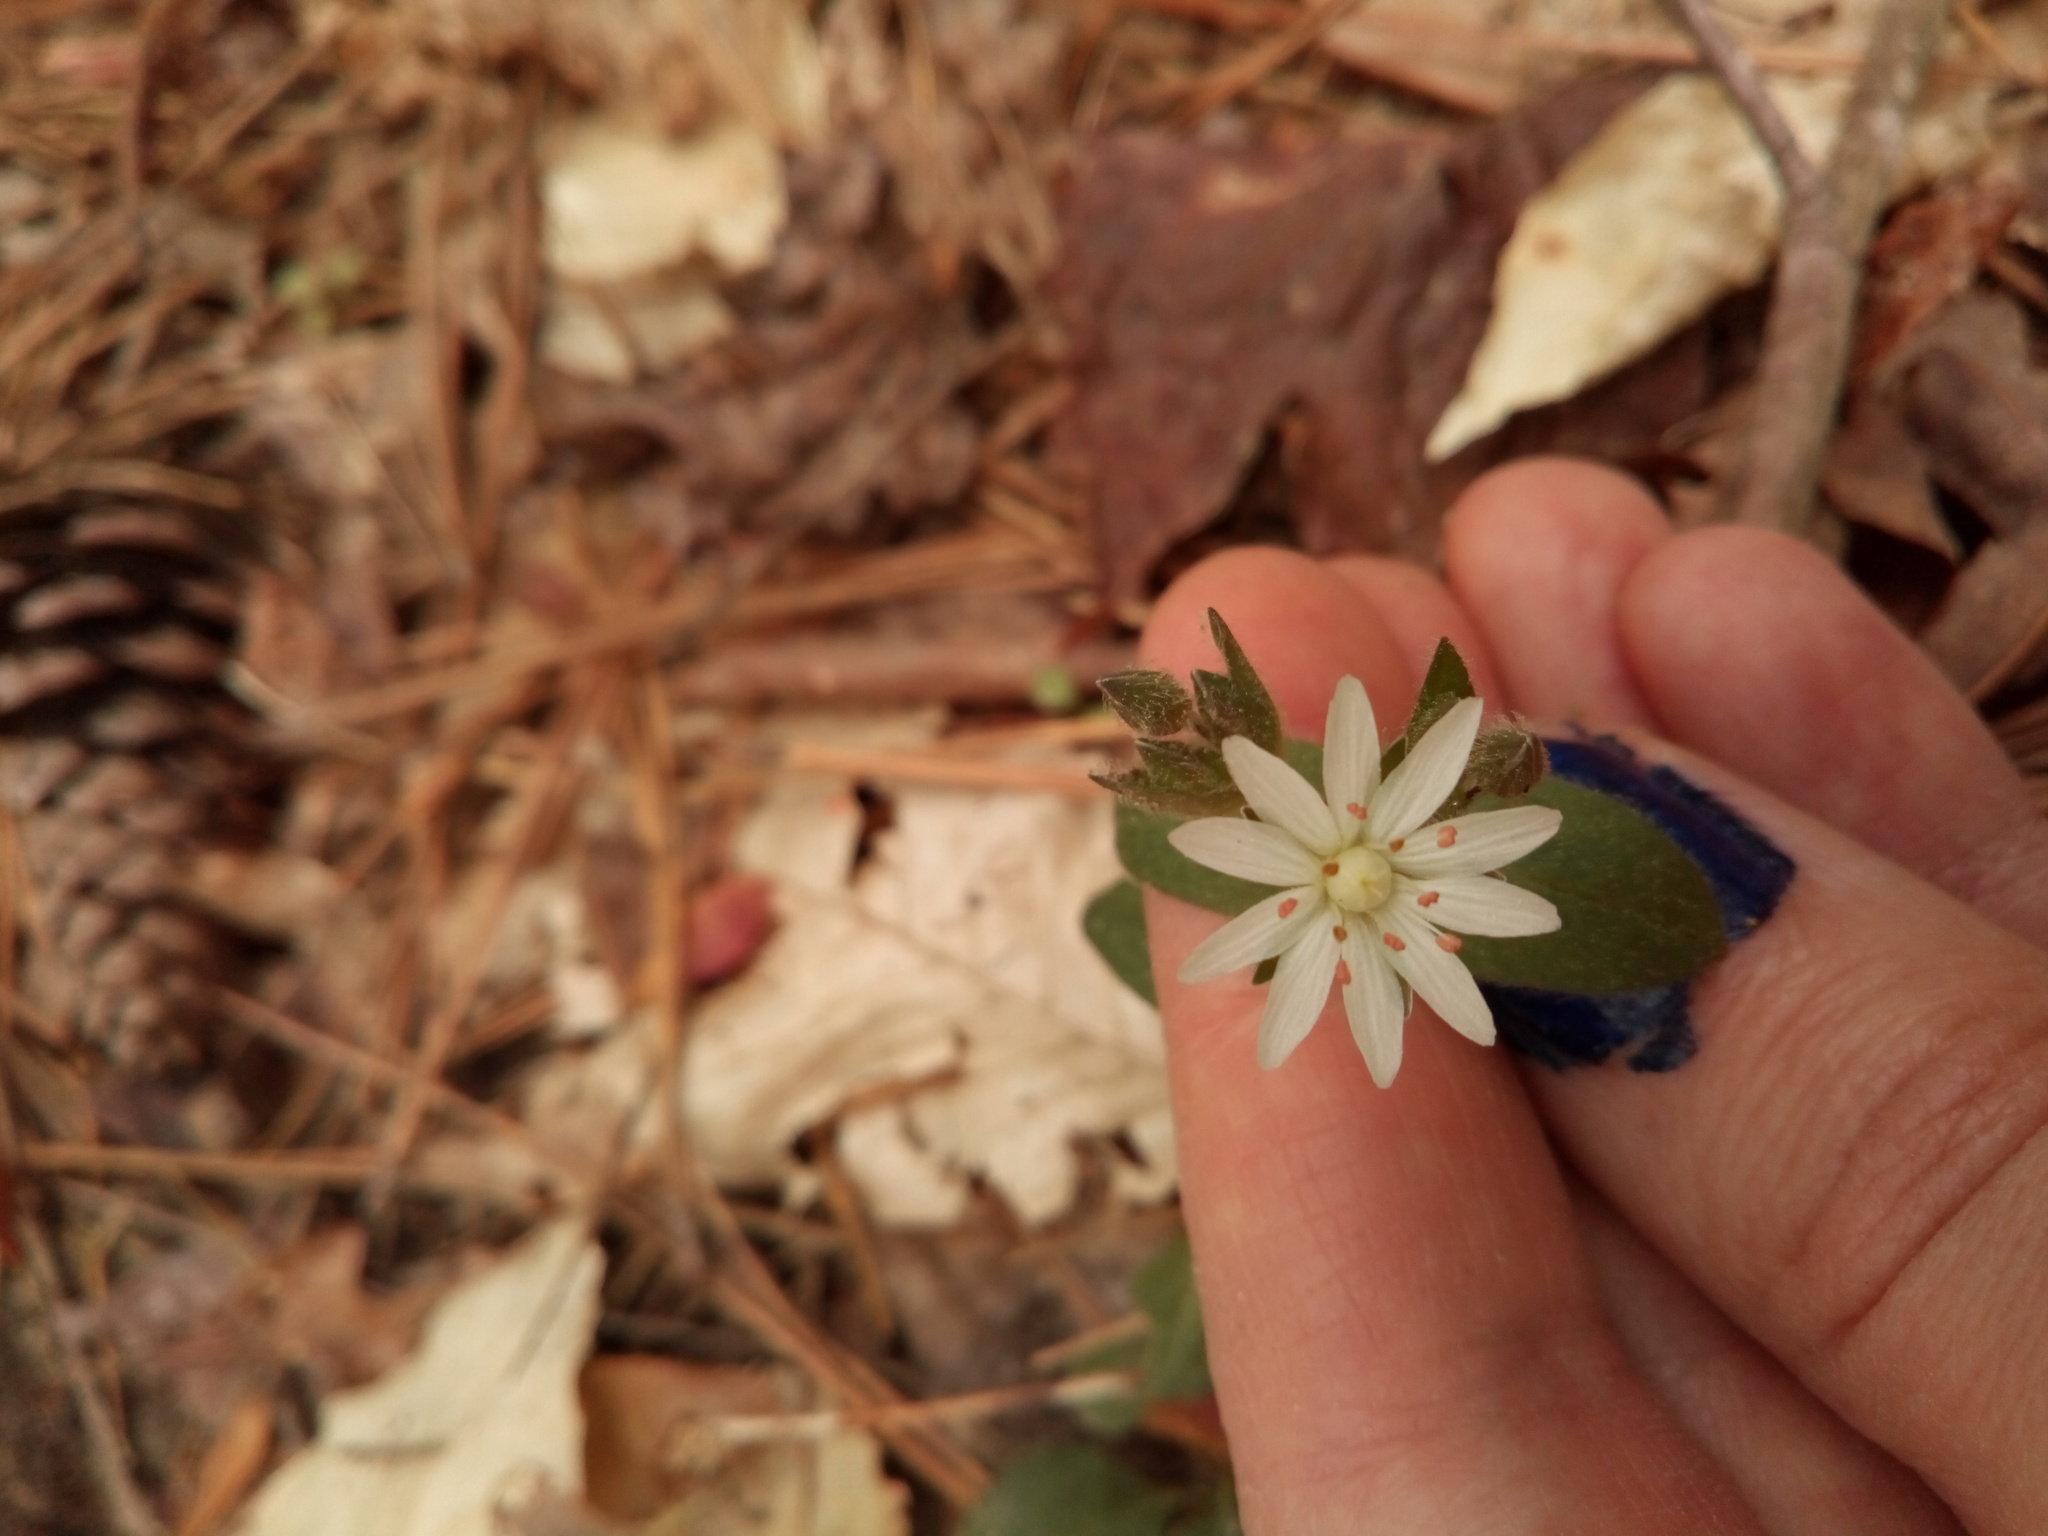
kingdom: Plantae
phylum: Tracheophyta
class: Magnoliopsida
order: Caryophyllales
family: Caryophyllaceae
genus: Stellaria
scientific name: Stellaria pubera
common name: Star chickweed
